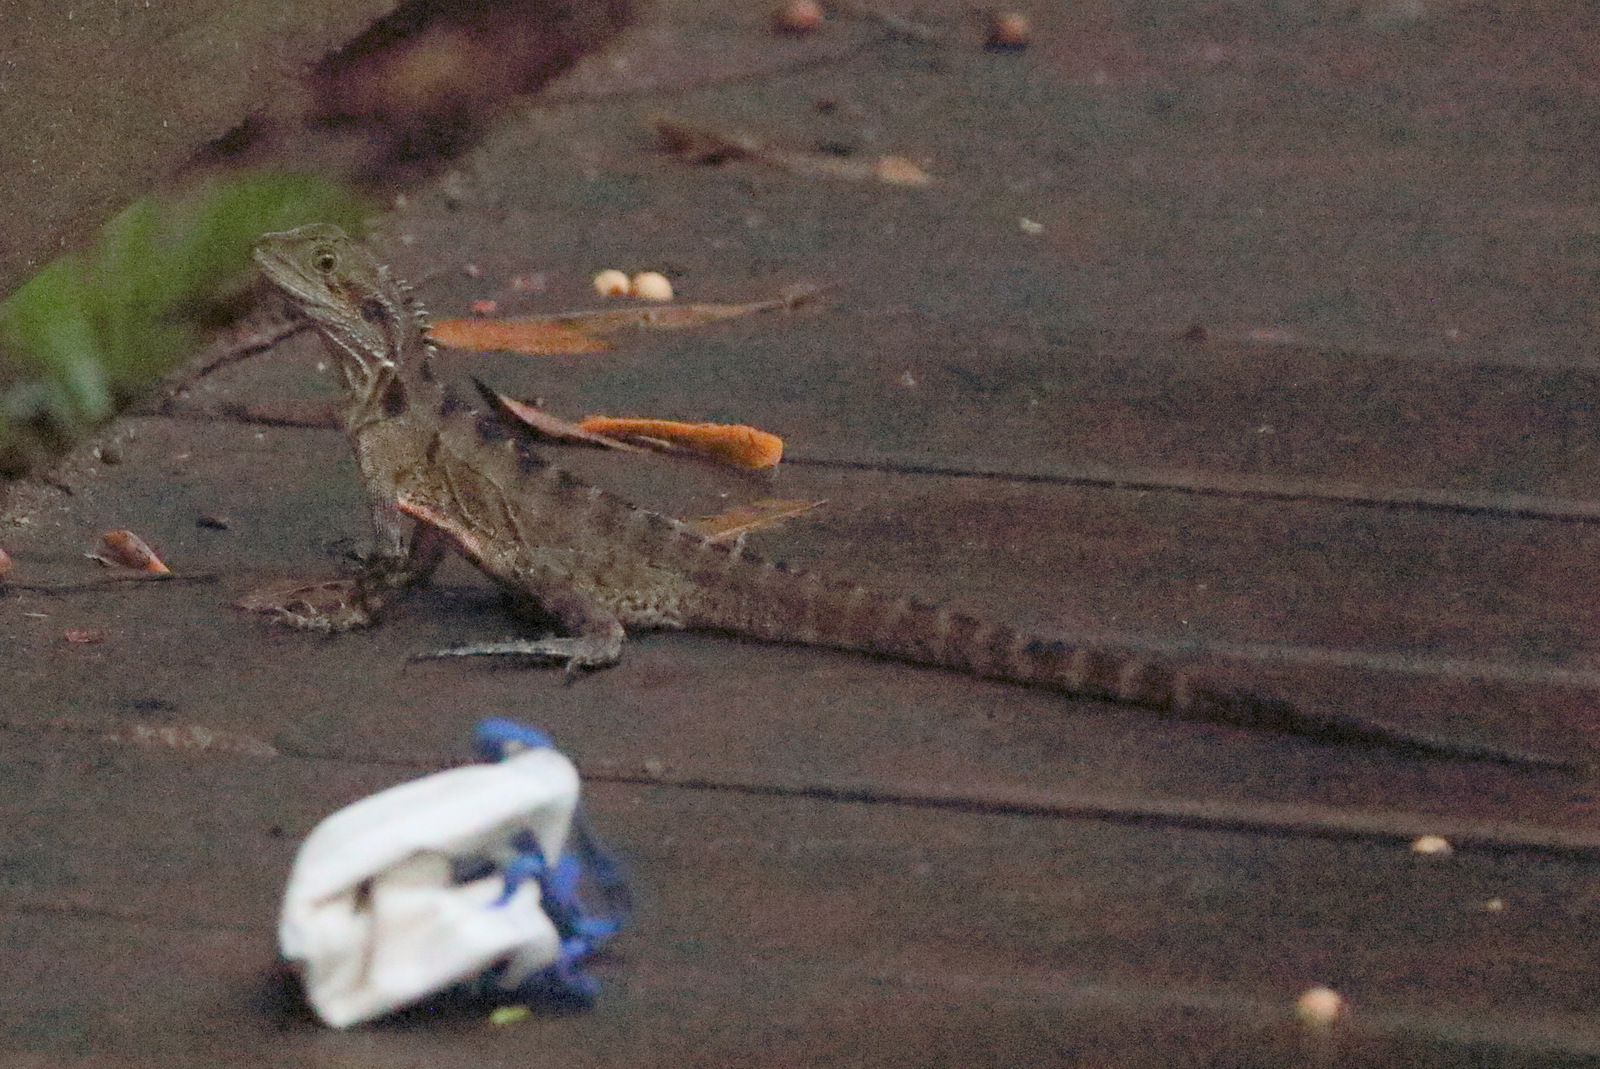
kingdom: Animalia
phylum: Chordata
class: Squamata
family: Agamidae
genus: Intellagama
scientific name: Intellagama lesueurii
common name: Eastern water dragon
